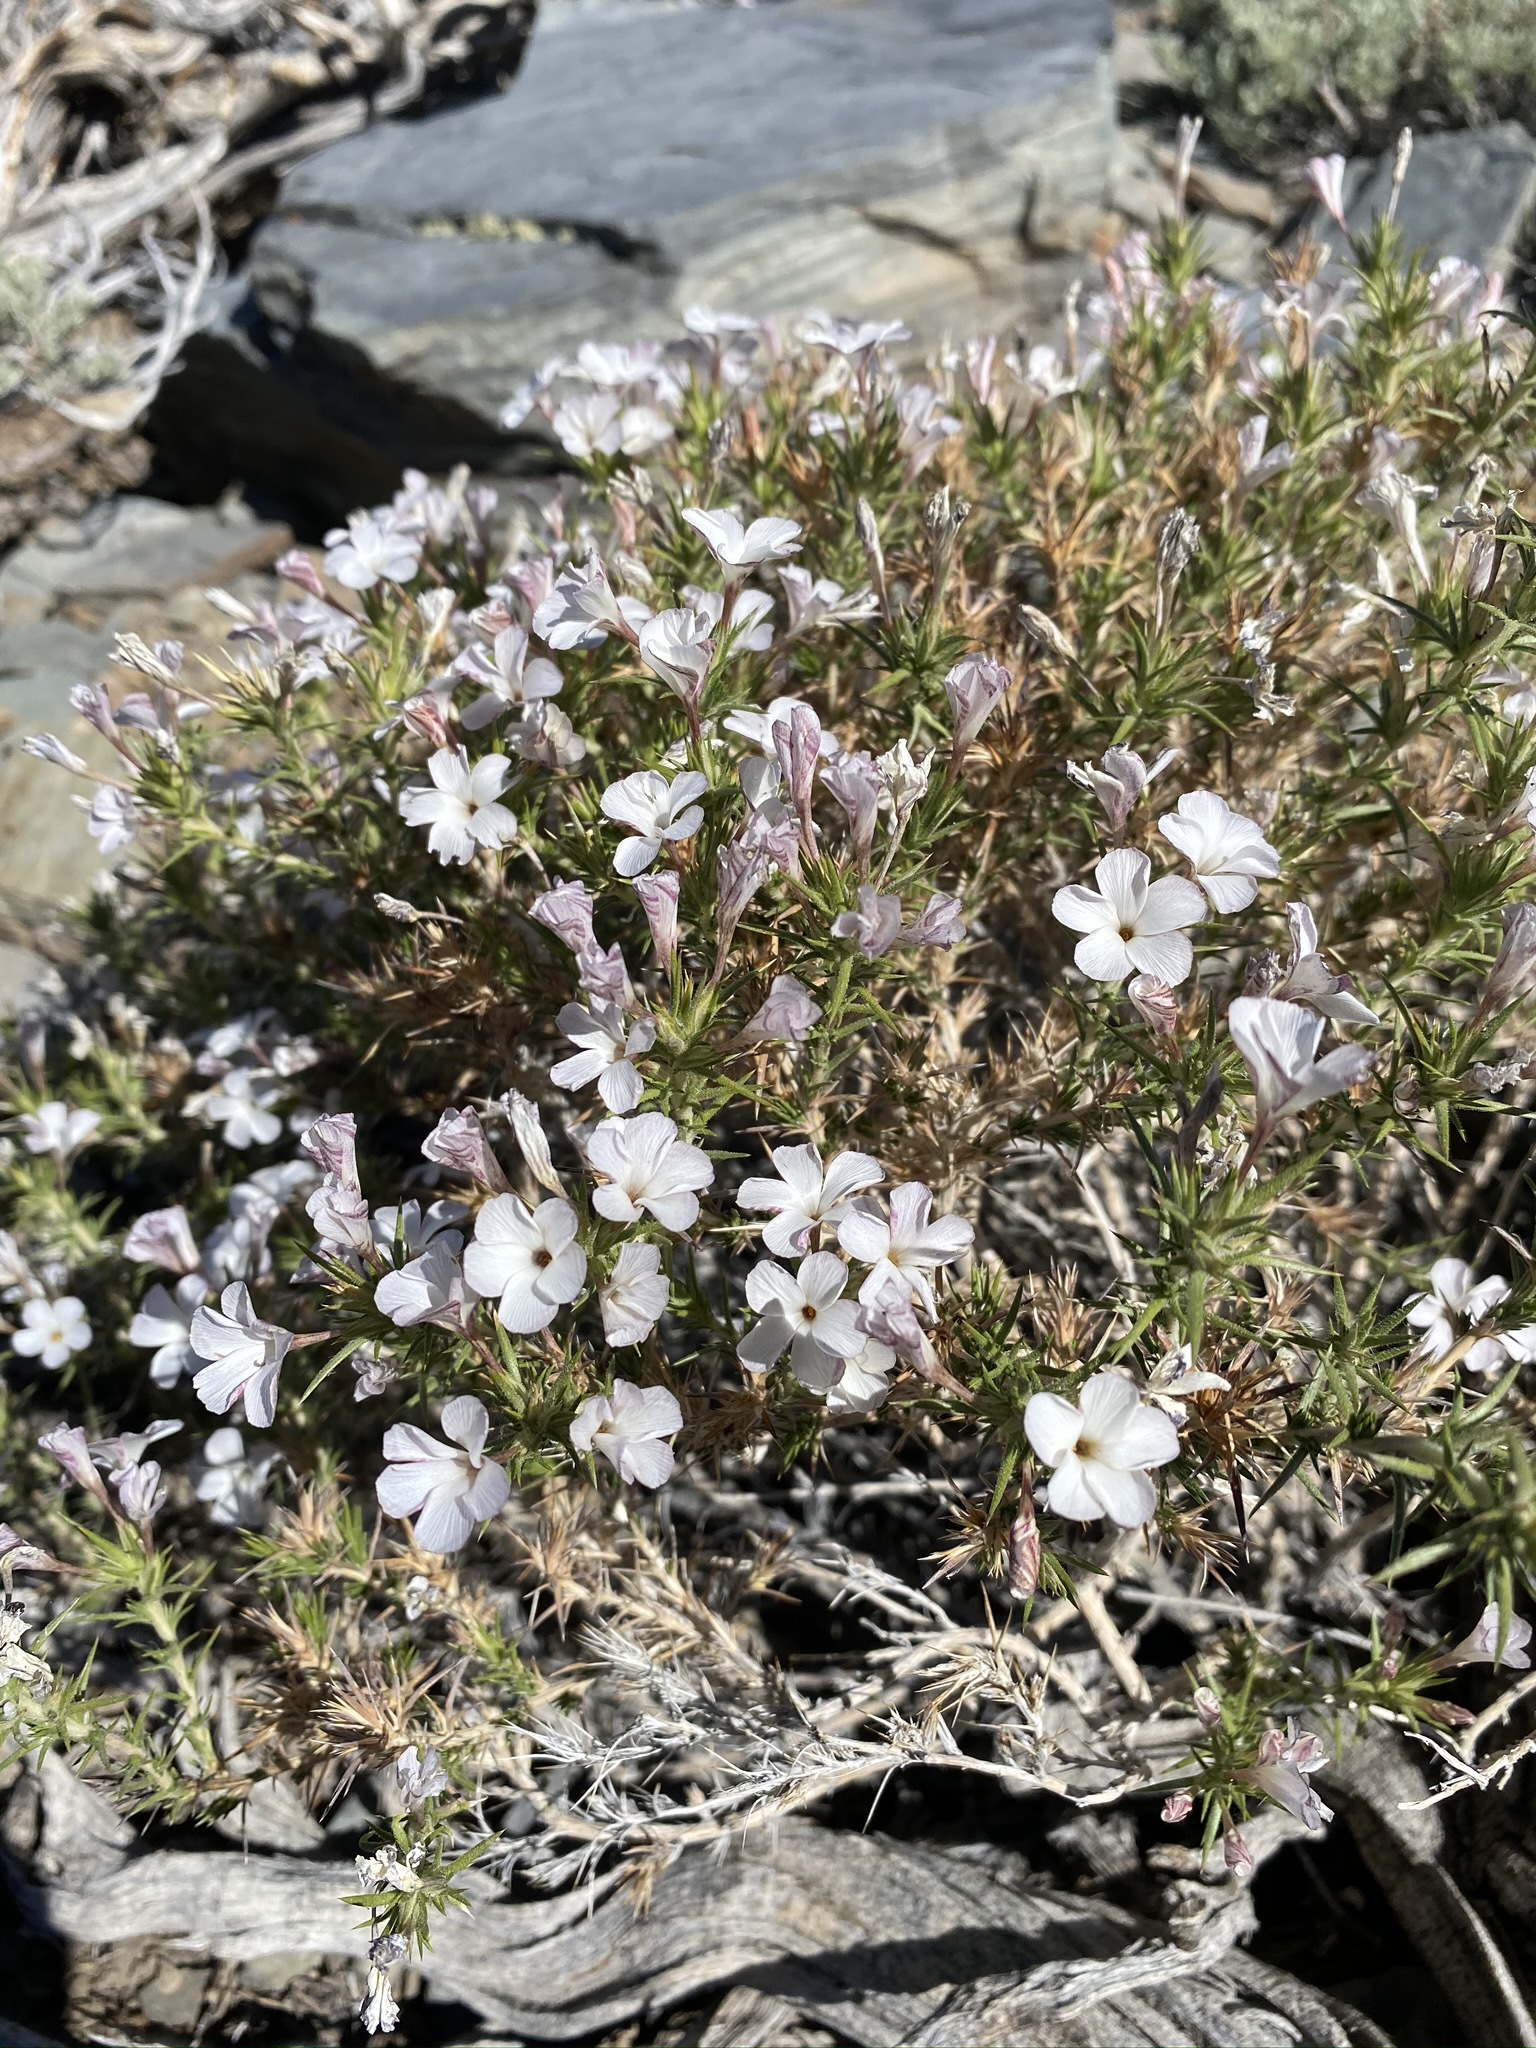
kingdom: Plantae
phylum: Tracheophyta
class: Magnoliopsida
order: Ericales
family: Polemoniaceae
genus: Linanthus
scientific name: Linanthus pungens
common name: Granite prickly phlox
